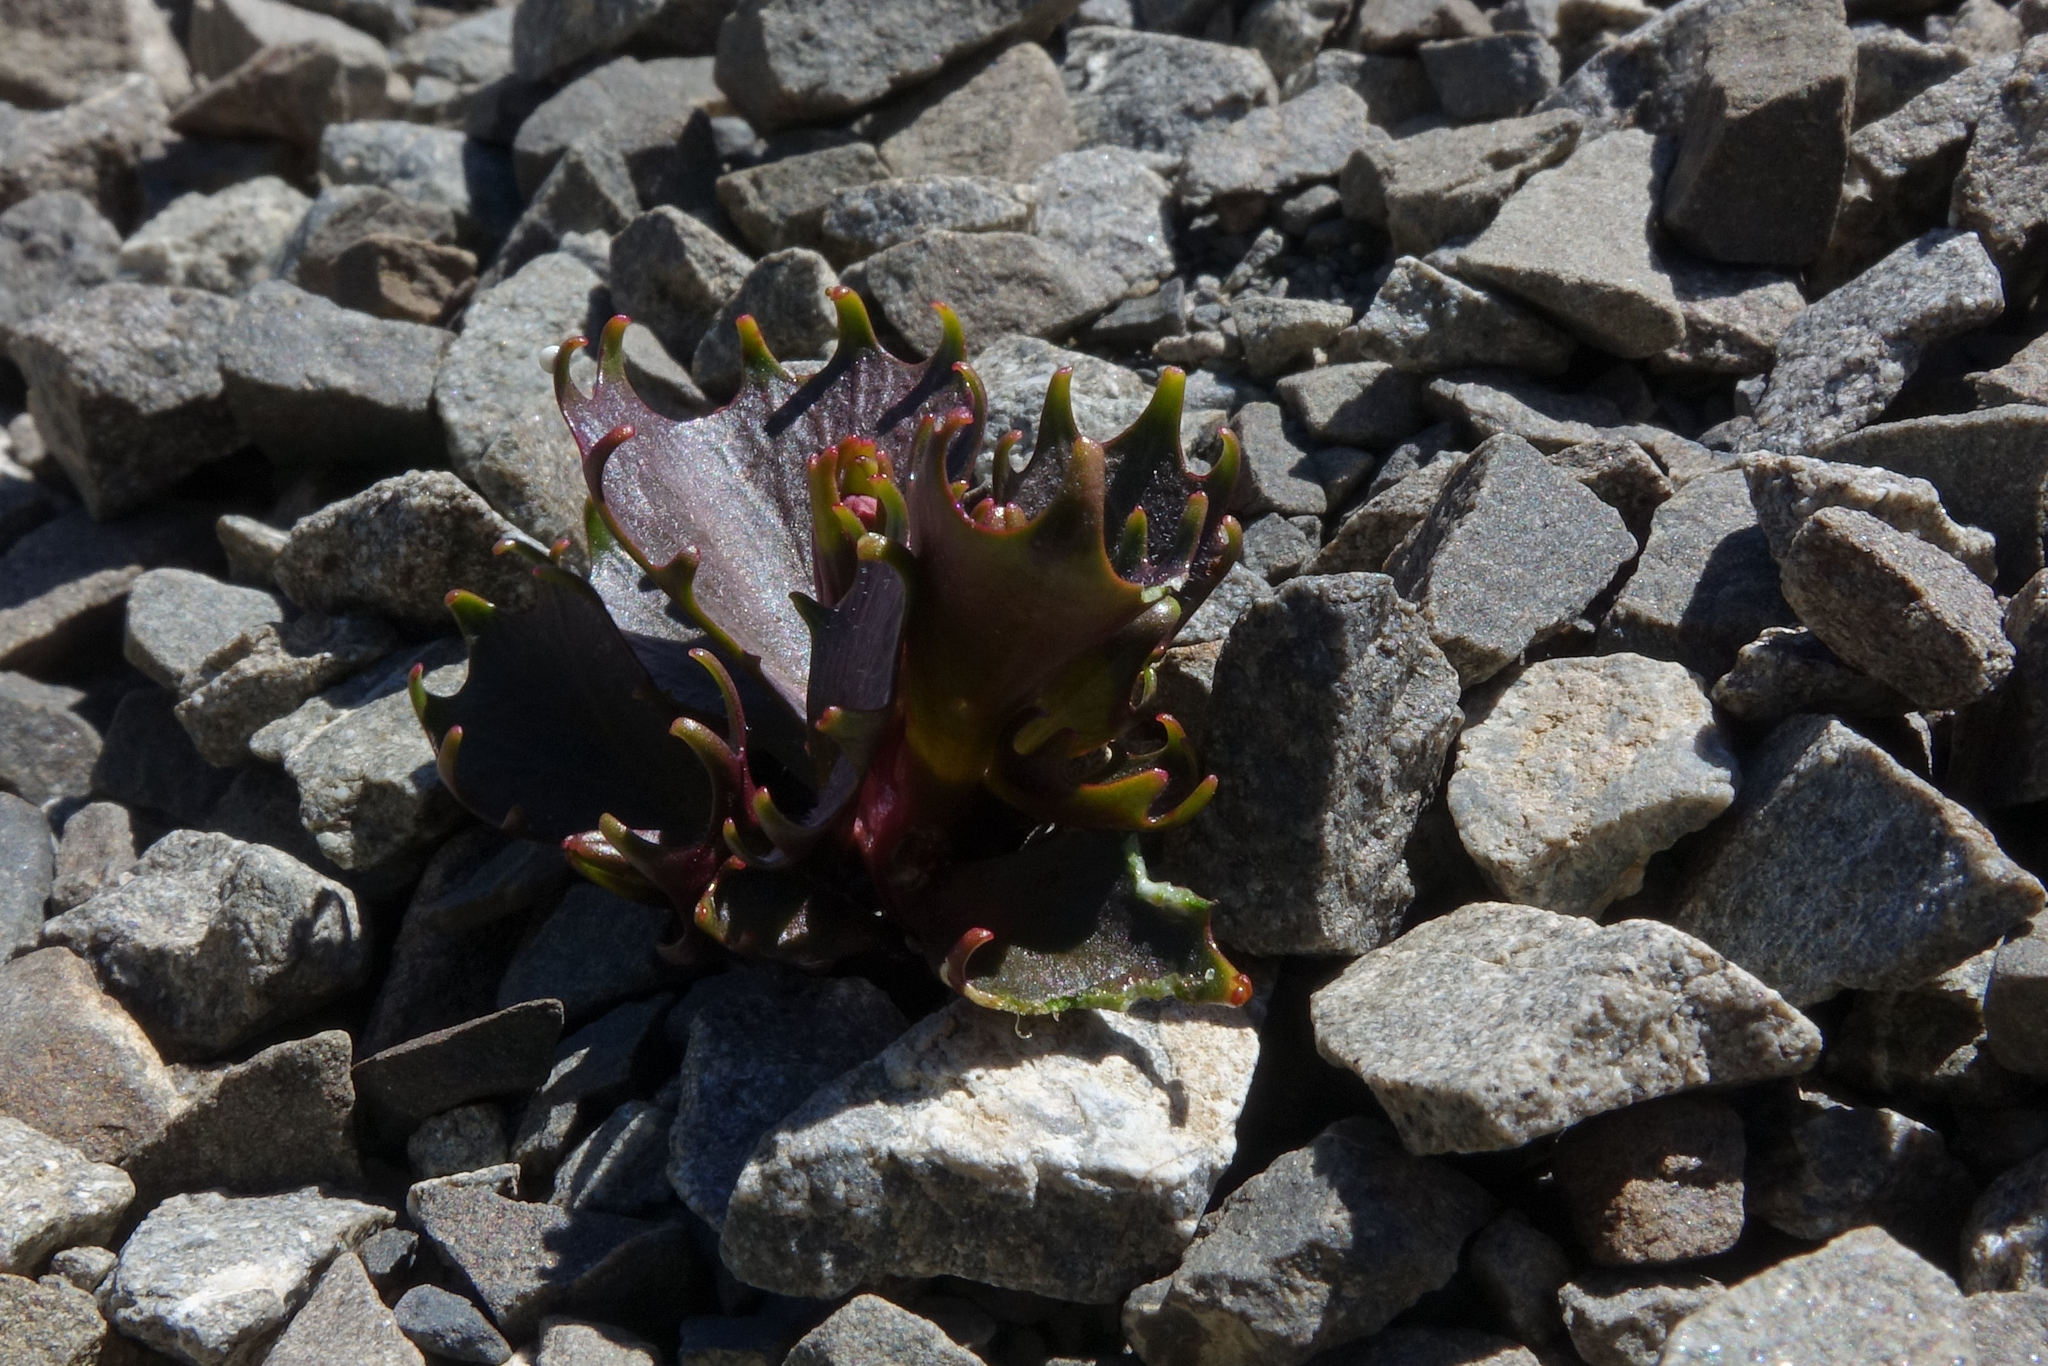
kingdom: Plantae
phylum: Tracheophyta
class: Magnoliopsida
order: Asterales
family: Campanulaceae
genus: Lobelia
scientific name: Lobelia roughii
